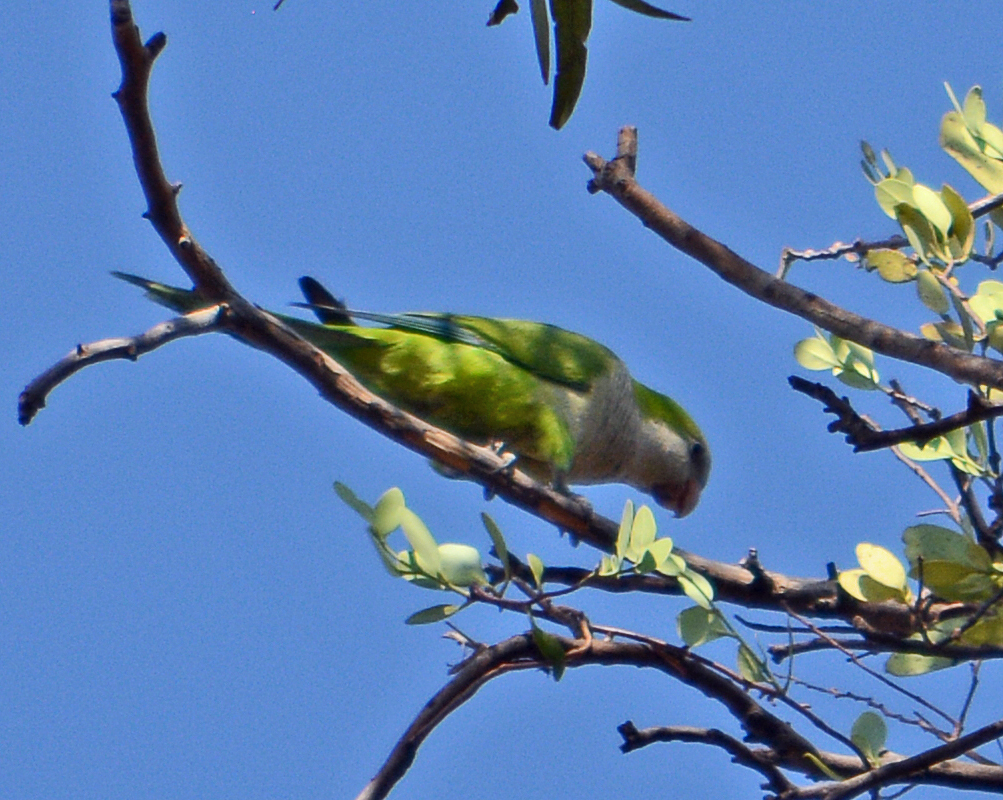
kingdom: Animalia
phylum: Chordata
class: Aves
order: Psittaciformes
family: Psittacidae
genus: Myiopsitta
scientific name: Myiopsitta monachus
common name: Monk parakeet
